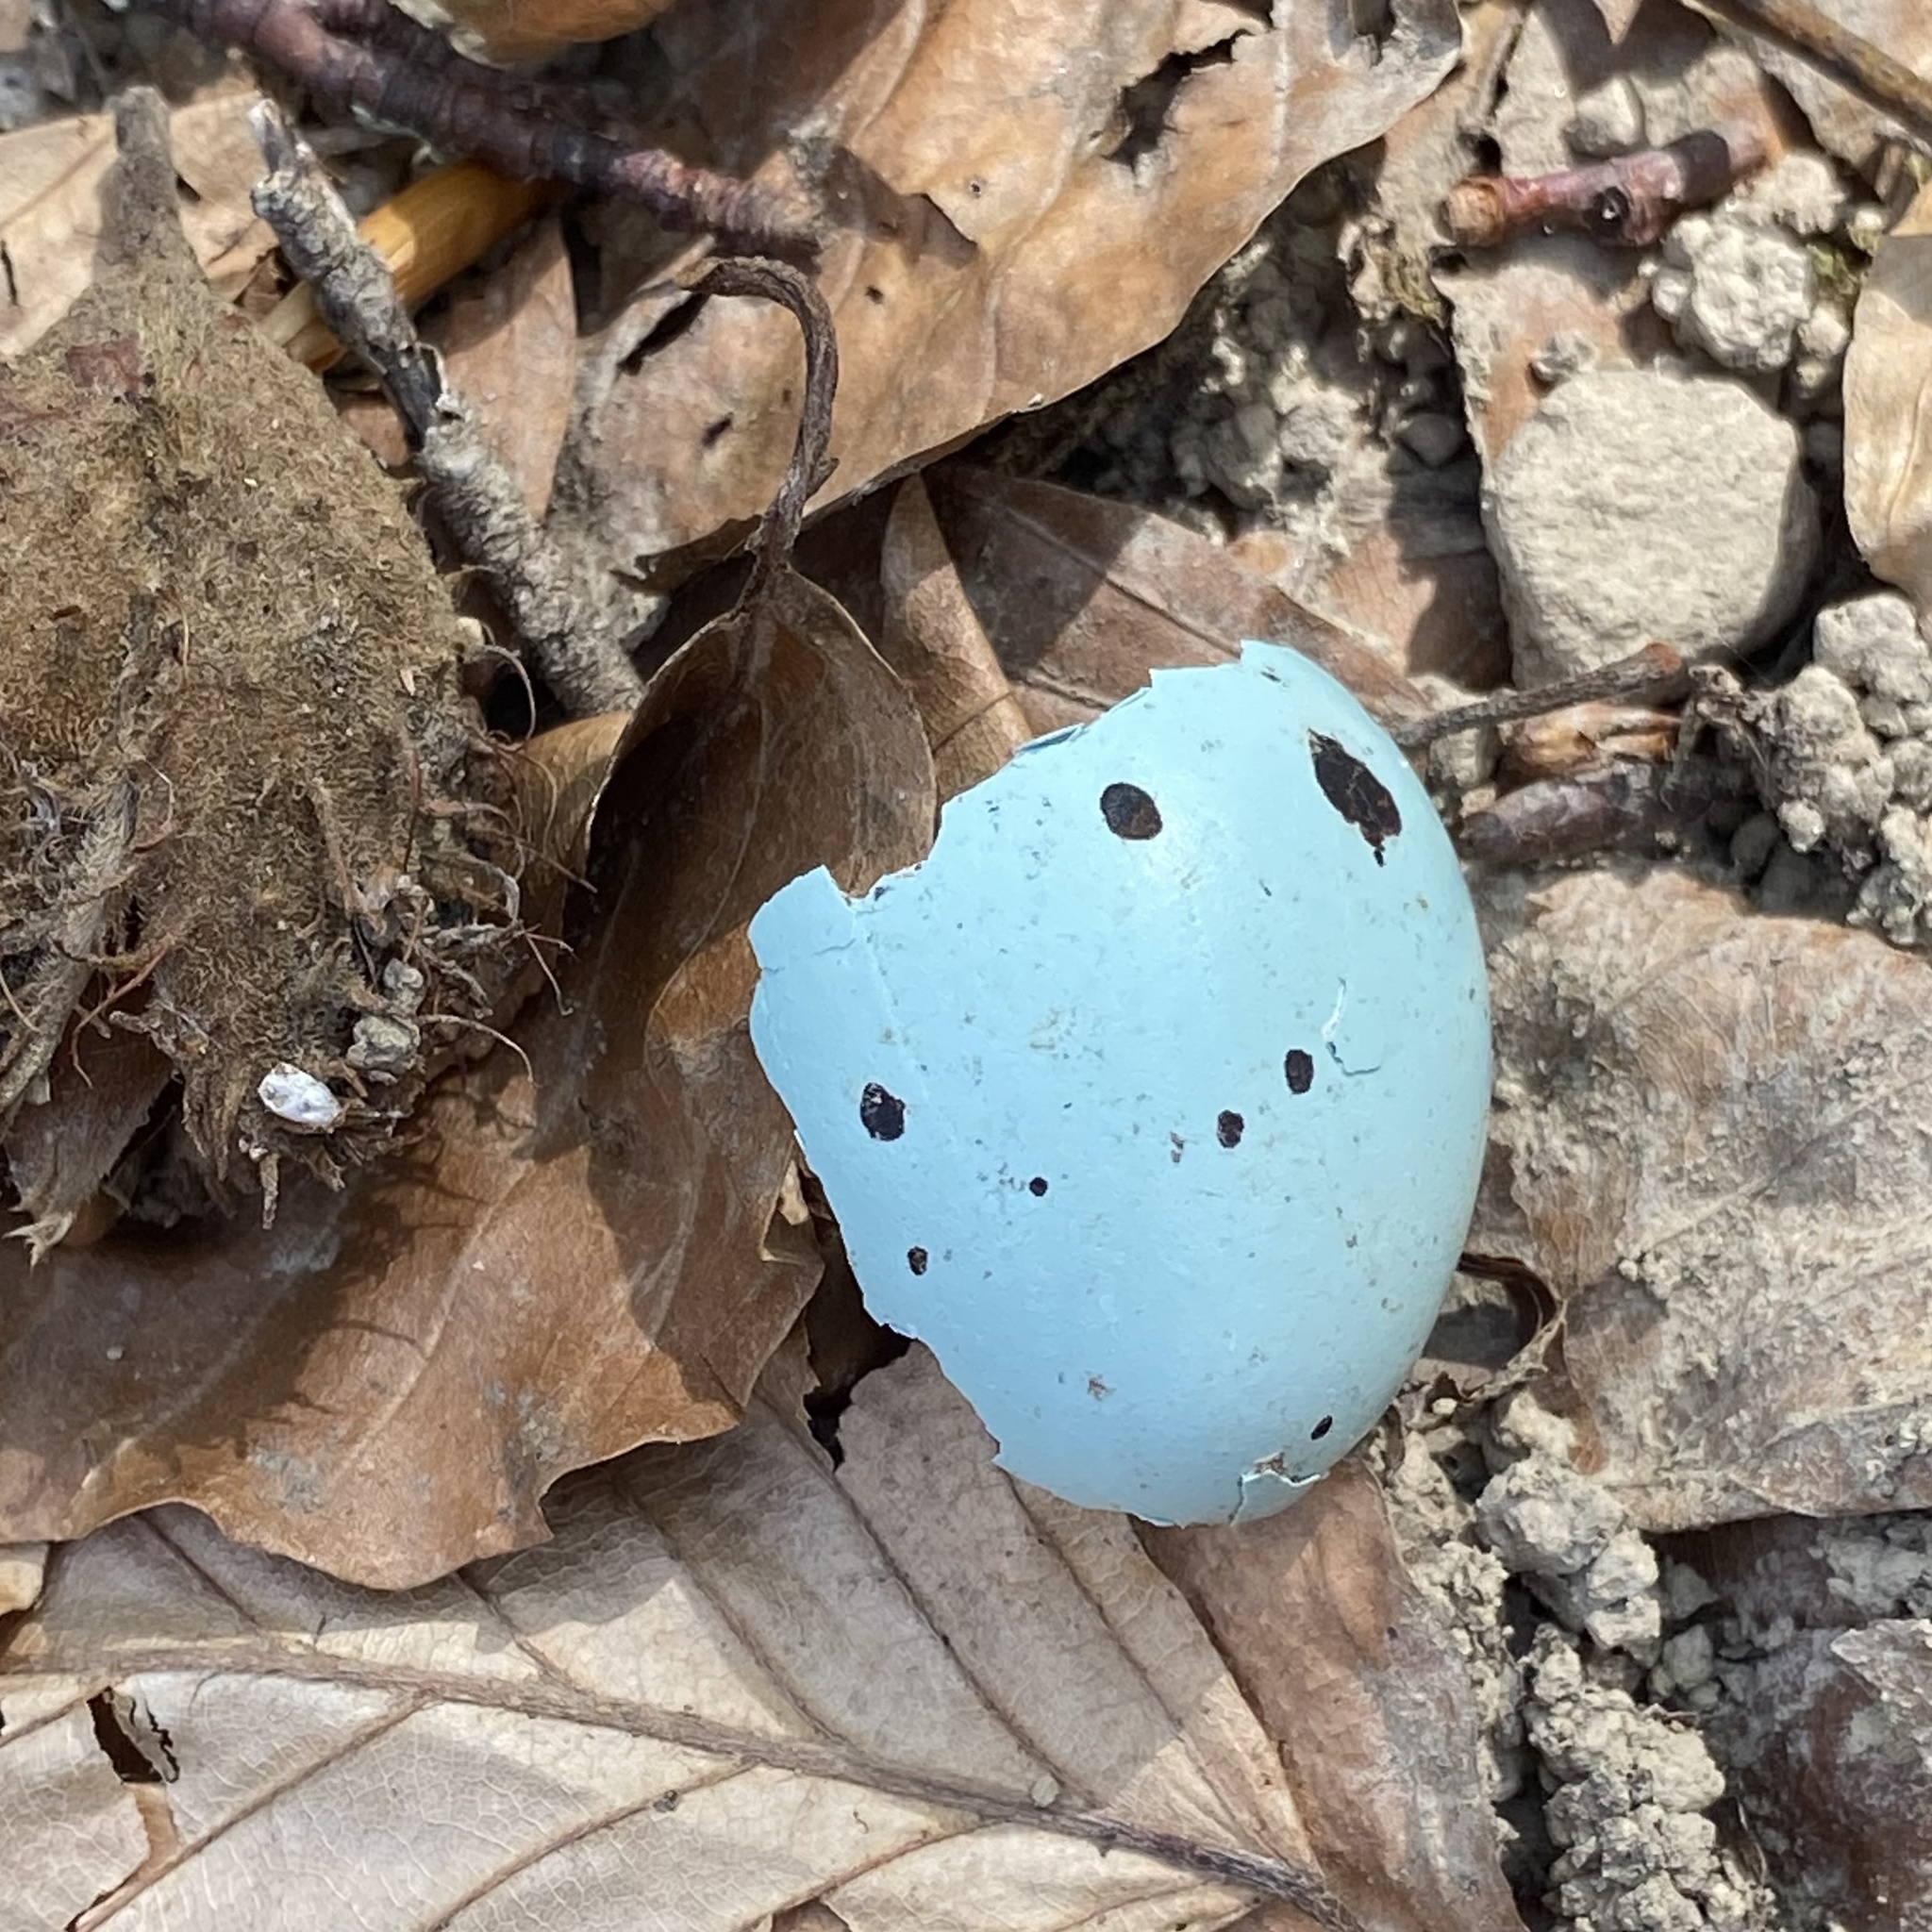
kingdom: Animalia
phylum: Chordata
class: Aves
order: Passeriformes
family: Turdidae
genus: Turdus
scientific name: Turdus philomelos
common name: Song thrush
